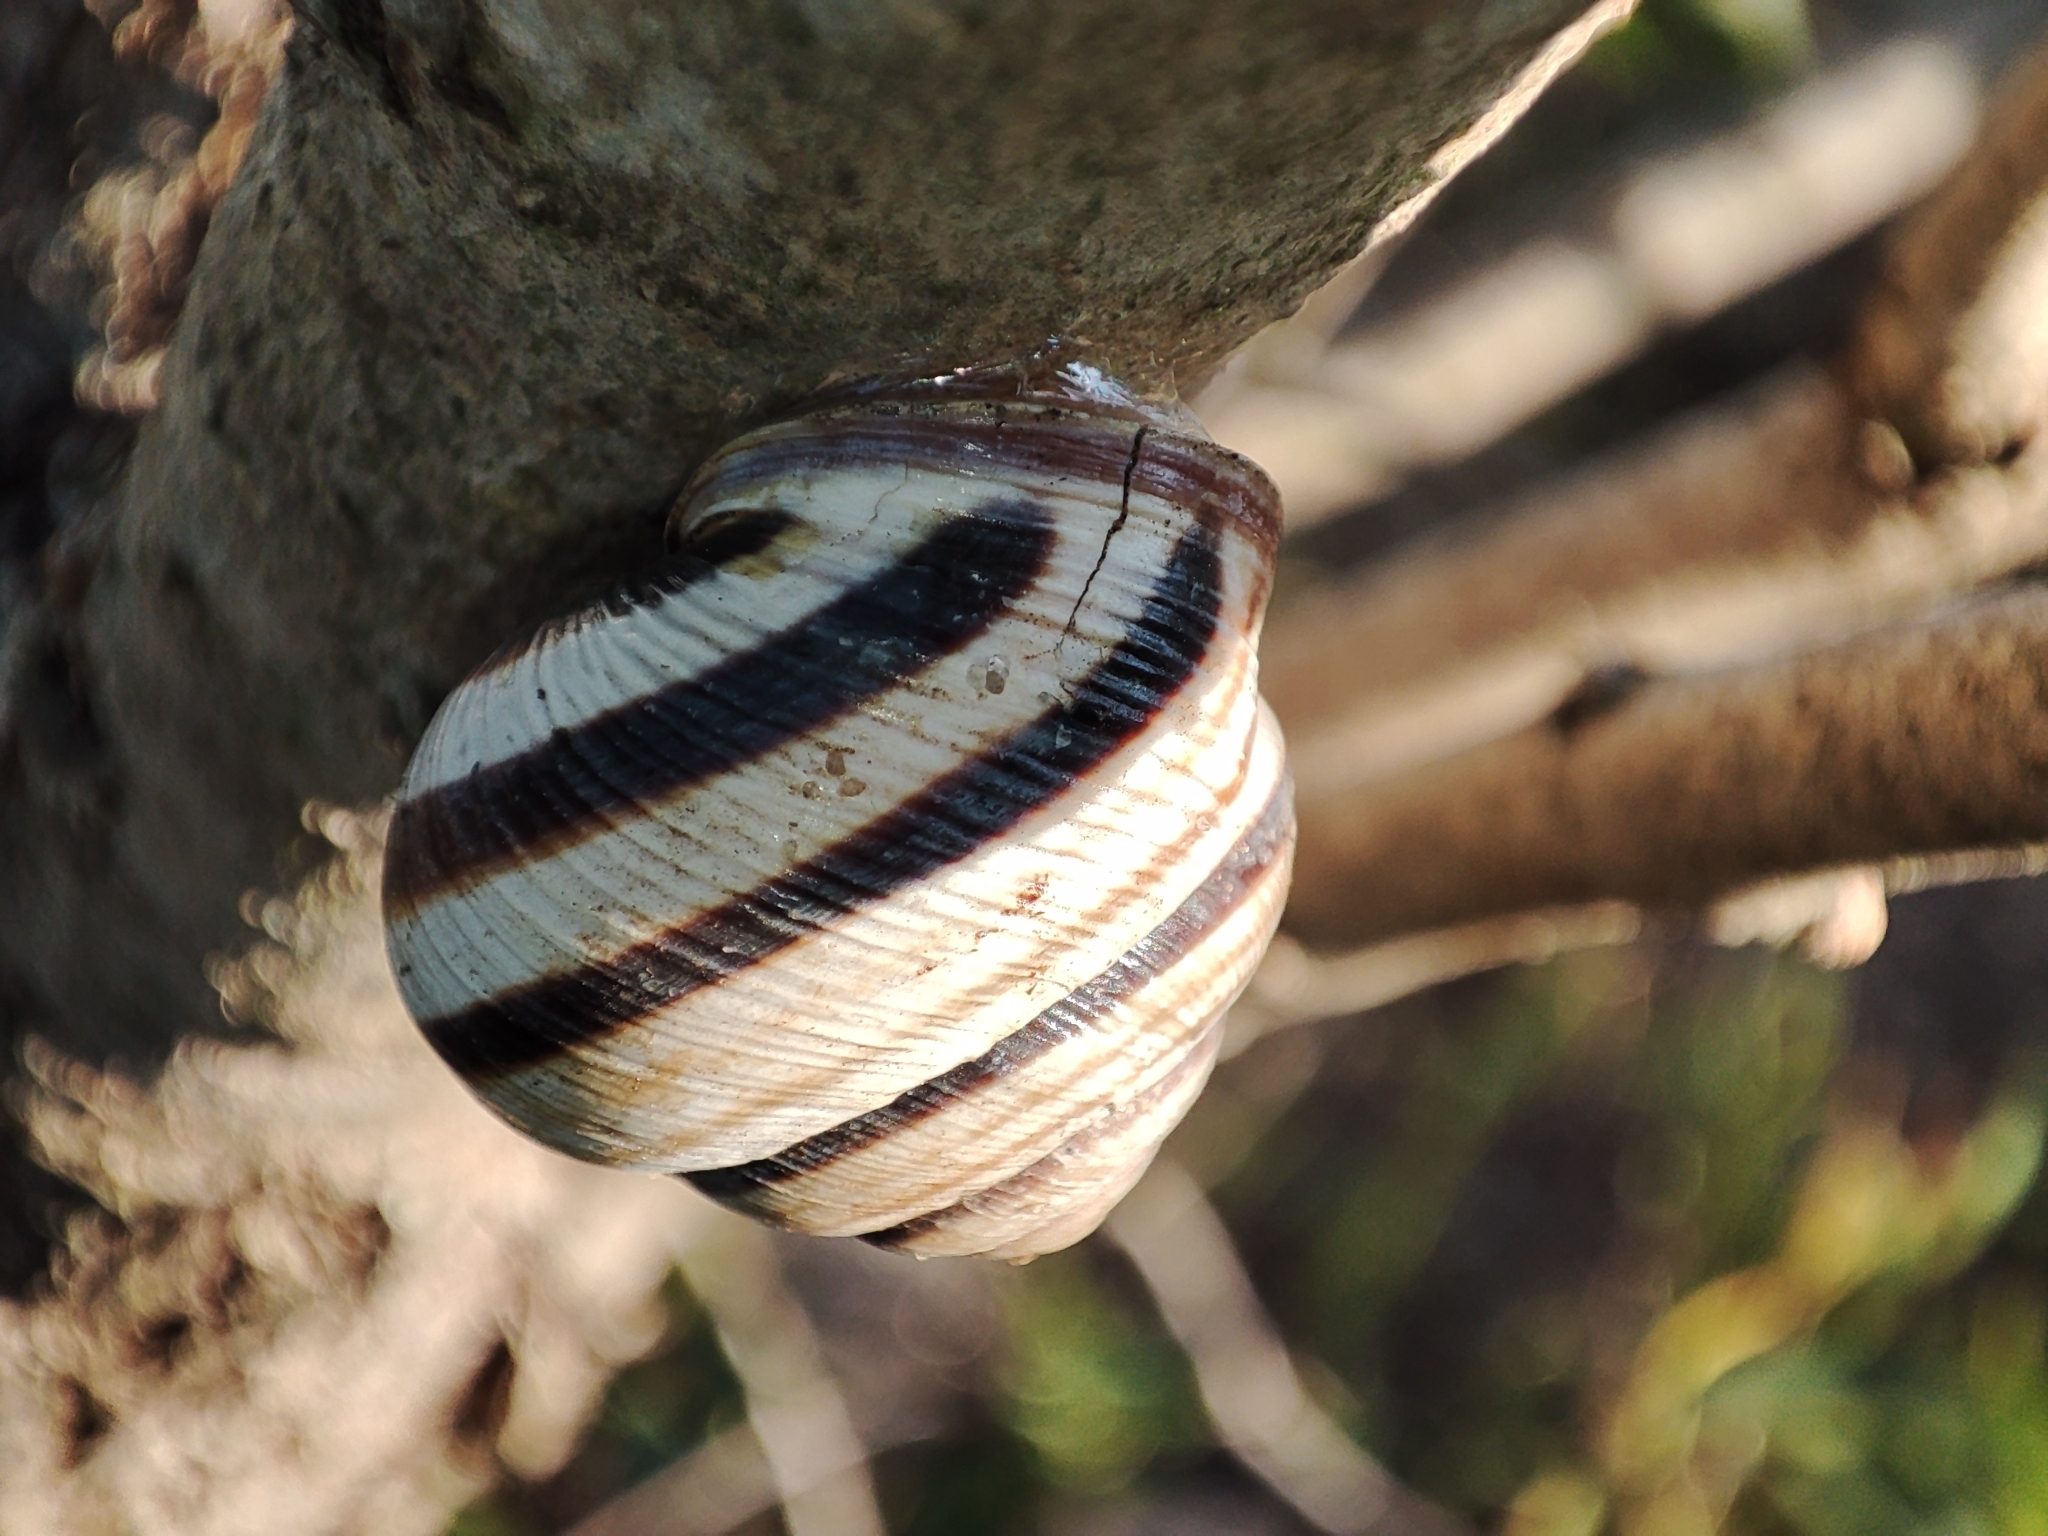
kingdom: Animalia
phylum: Mollusca
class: Gastropoda
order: Stylommatophora
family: Helicidae
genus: Caucasotachea
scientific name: Caucasotachea vindobonensis
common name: European helicid land snail
